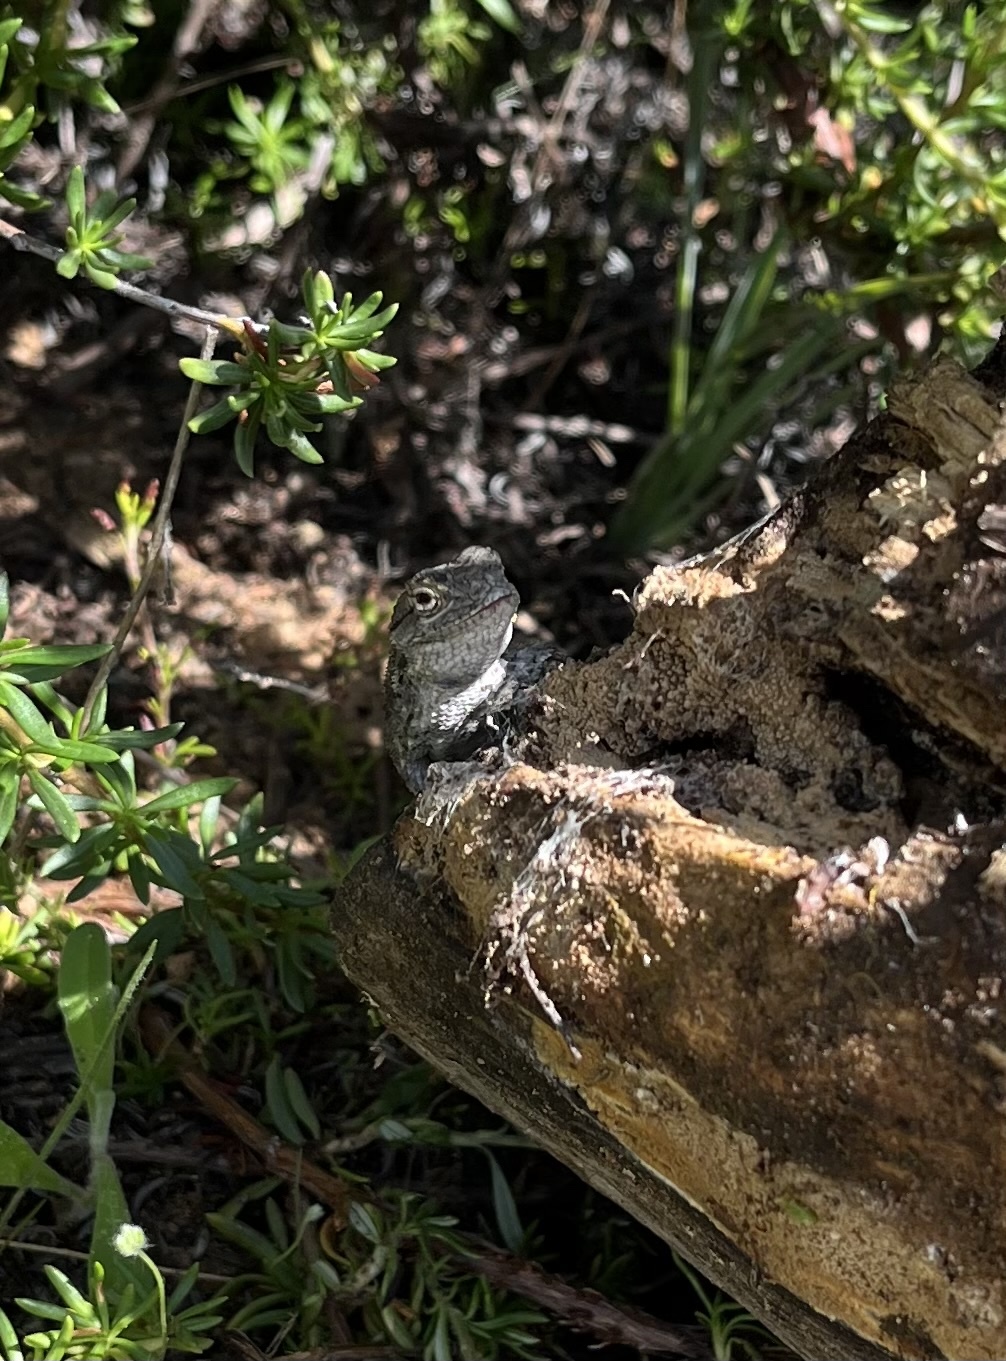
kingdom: Animalia
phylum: Chordata
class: Squamata
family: Phrynosomatidae
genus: Sceloporus
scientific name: Sceloporus occidentalis
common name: Western fence lizard
